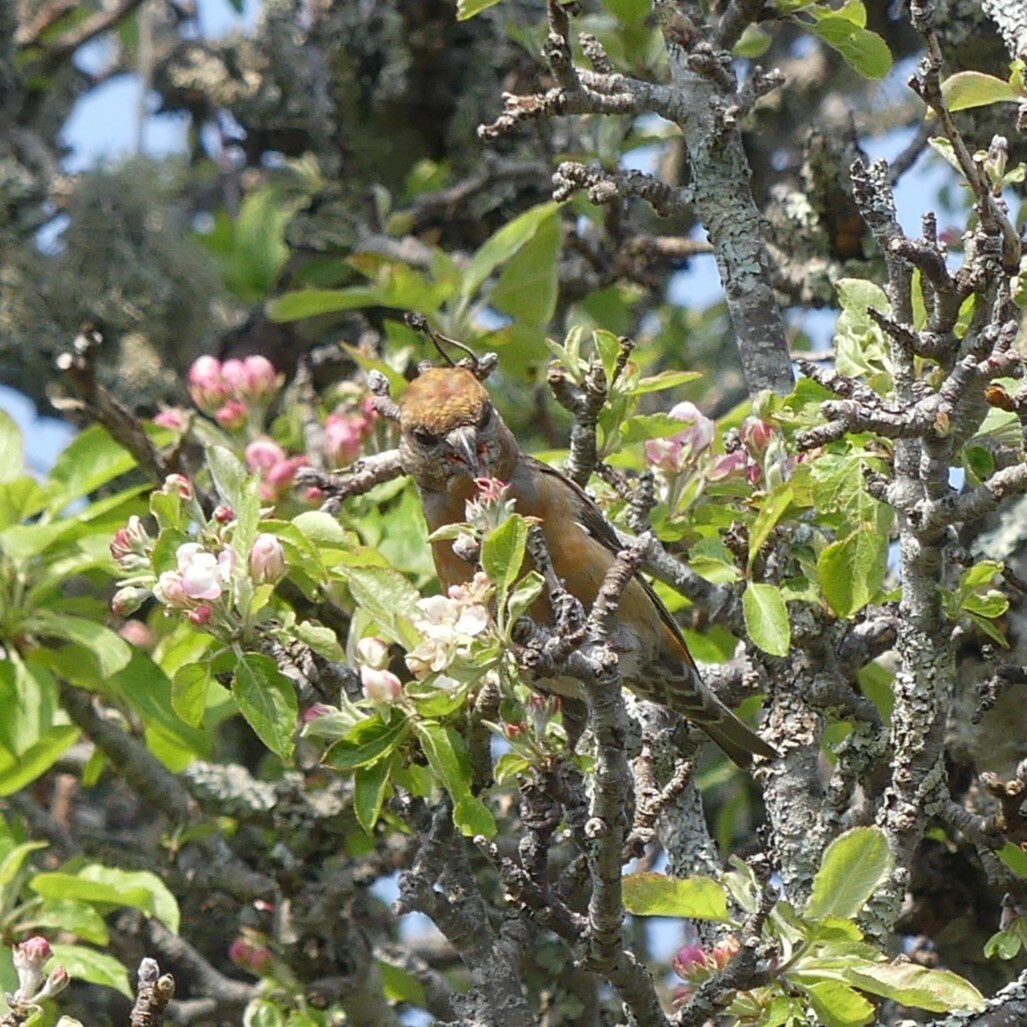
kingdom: Animalia
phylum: Chordata
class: Aves
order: Passeriformes
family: Fringillidae
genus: Loxia
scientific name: Loxia curvirostra
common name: Red crossbill
